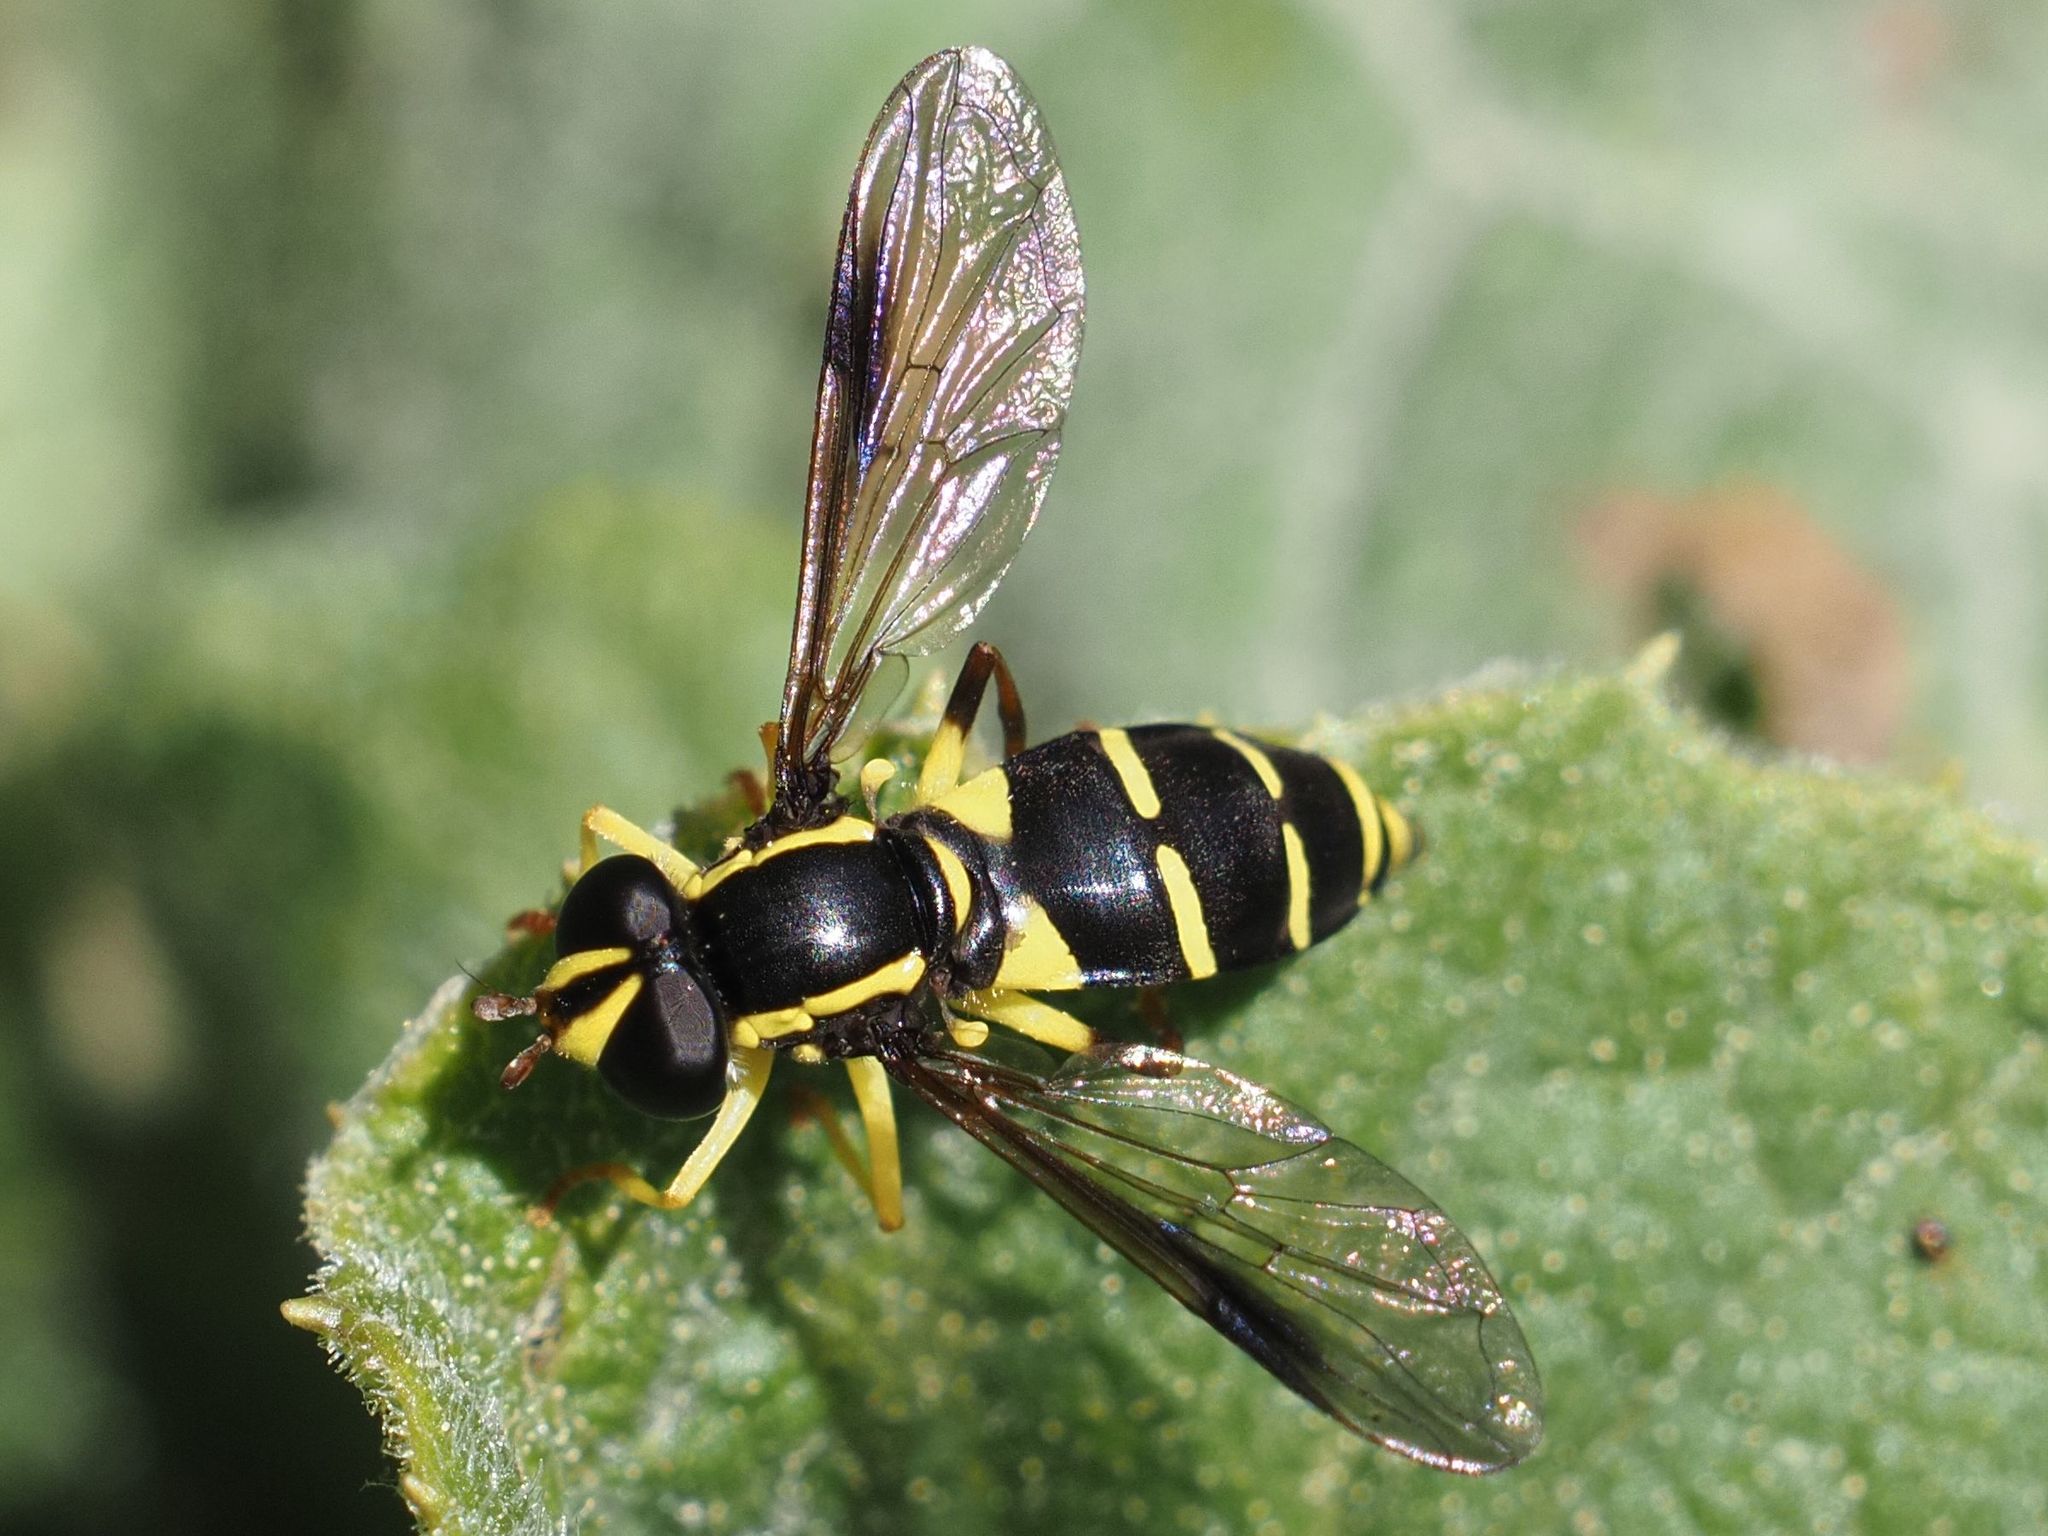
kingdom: Animalia
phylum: Arthropoda
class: Insecta
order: Diptera
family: Syrphidae
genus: Philhelius
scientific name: Philhelius dives
